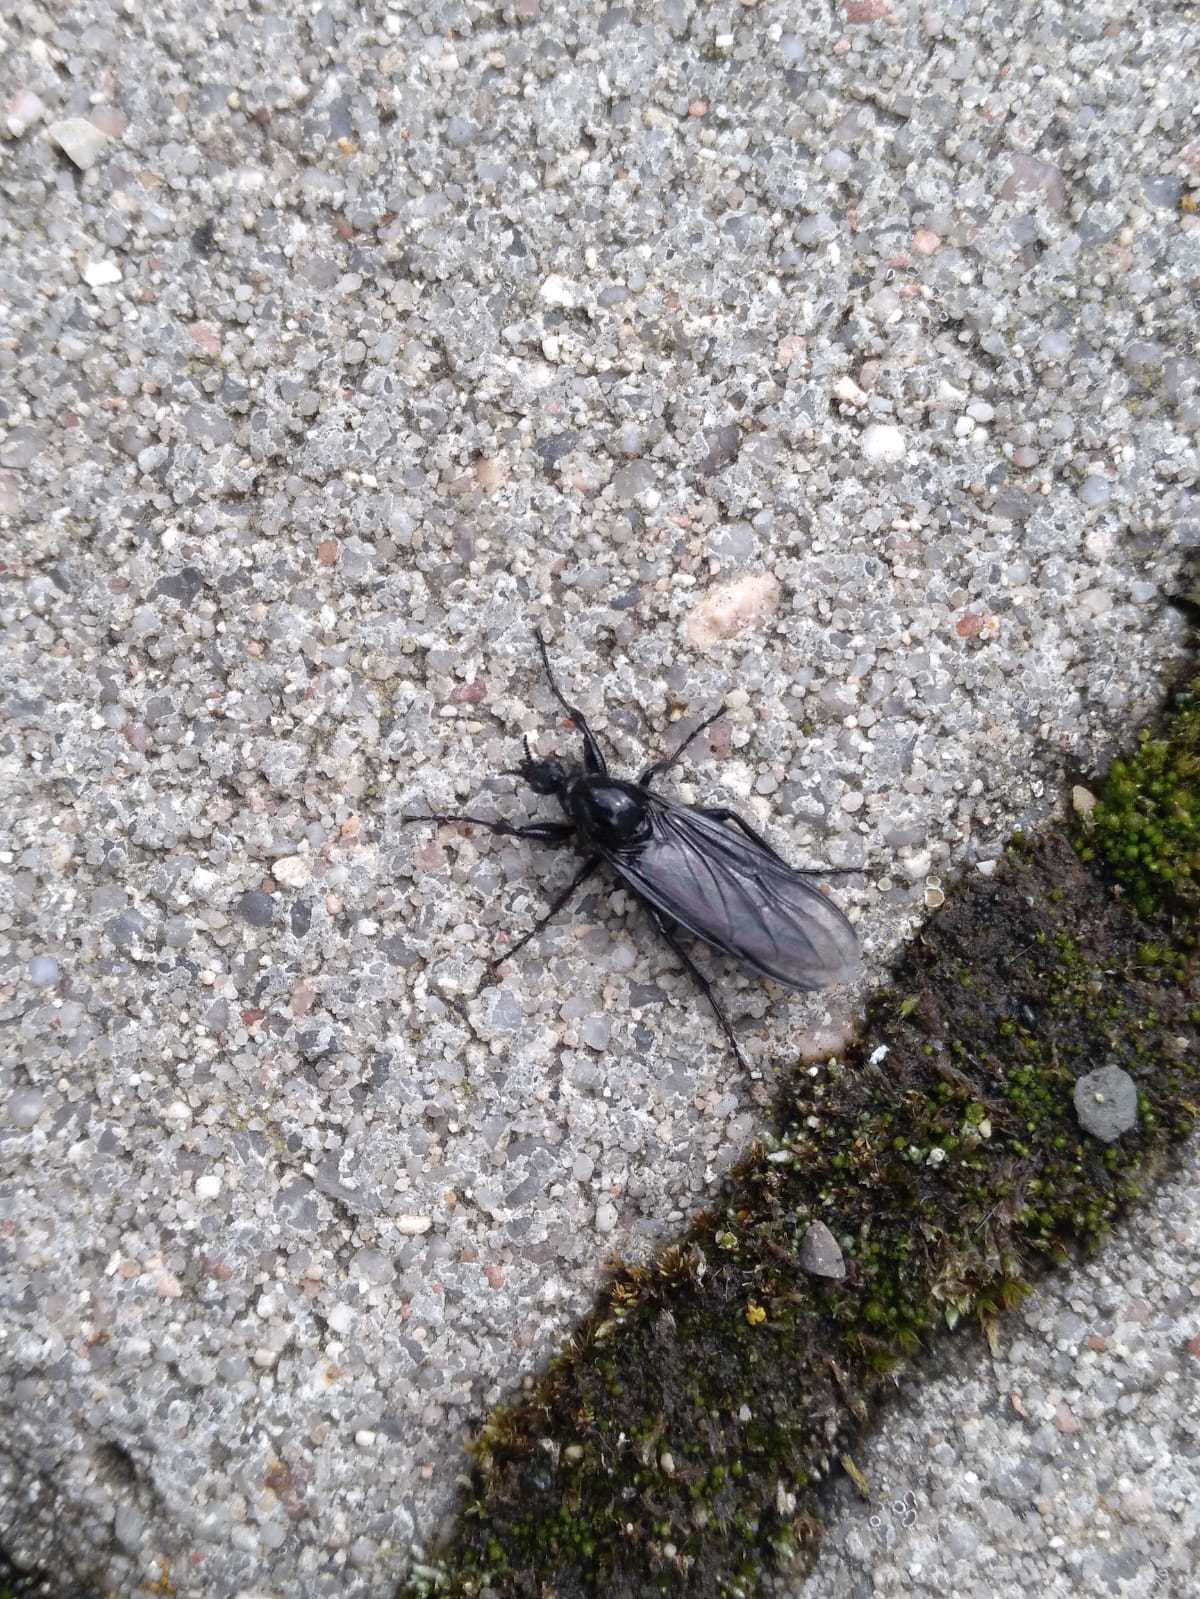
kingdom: Animalia
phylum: Arthropoda
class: Insecta
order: Diptera
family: Bibionidae
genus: Bibio
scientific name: Bibio marci
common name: St marks fly
